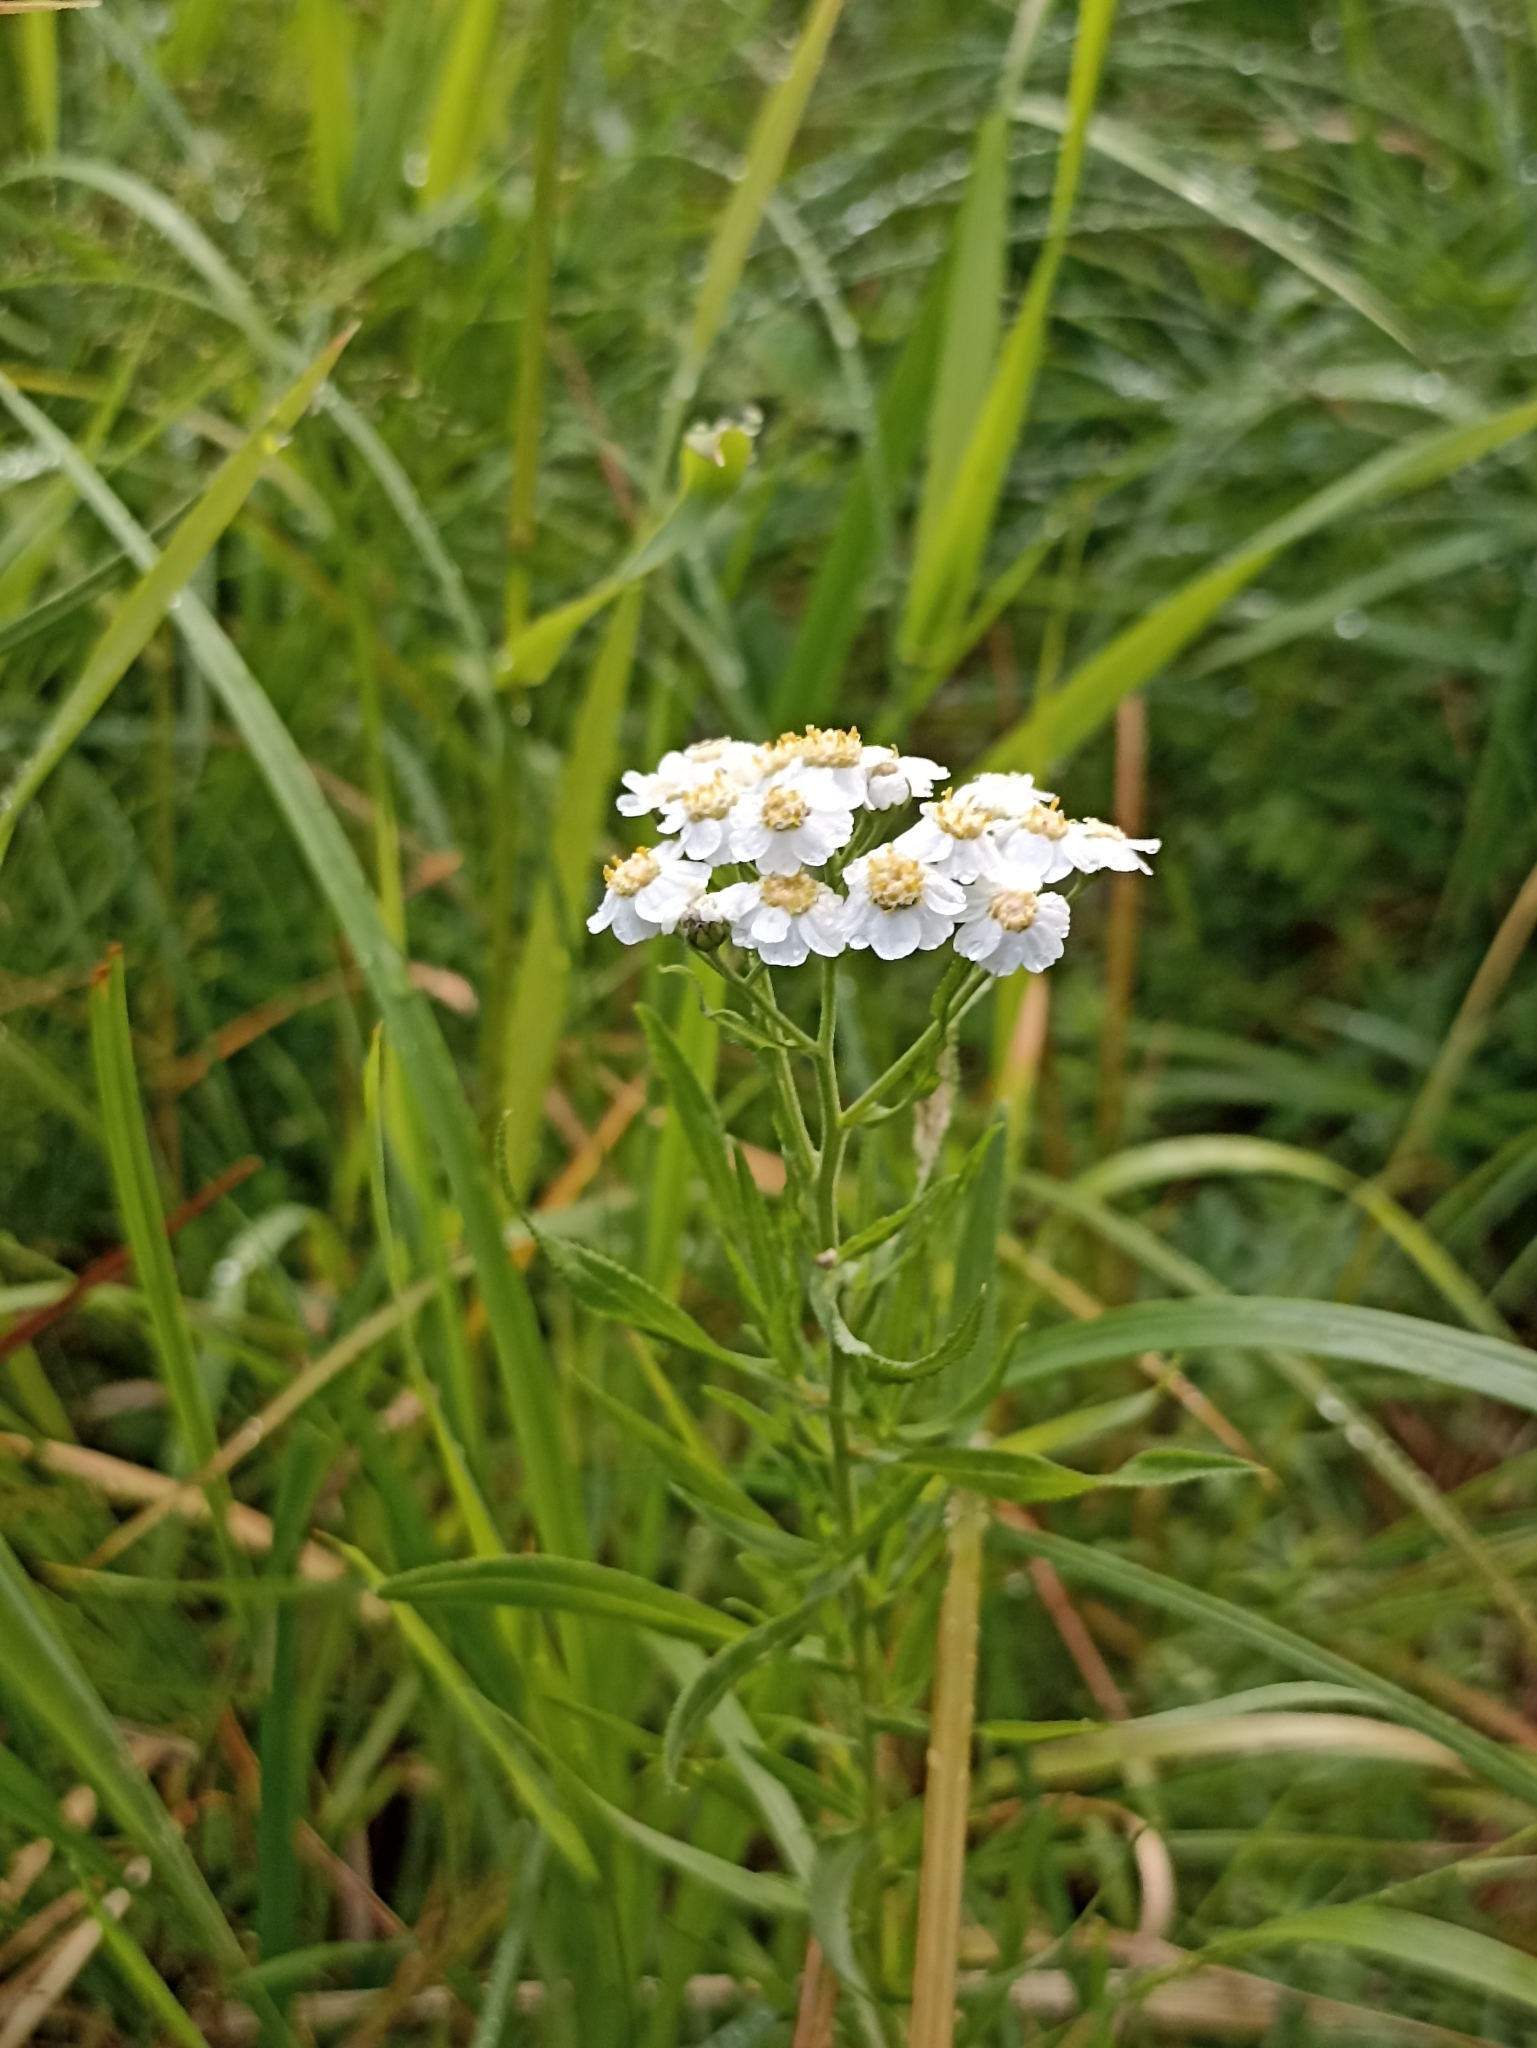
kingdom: Plantae
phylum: Tracheophyta
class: Magnoliopsida
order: Asterales
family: Asteraceae
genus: Achillea
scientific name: Achillea salicifolia
